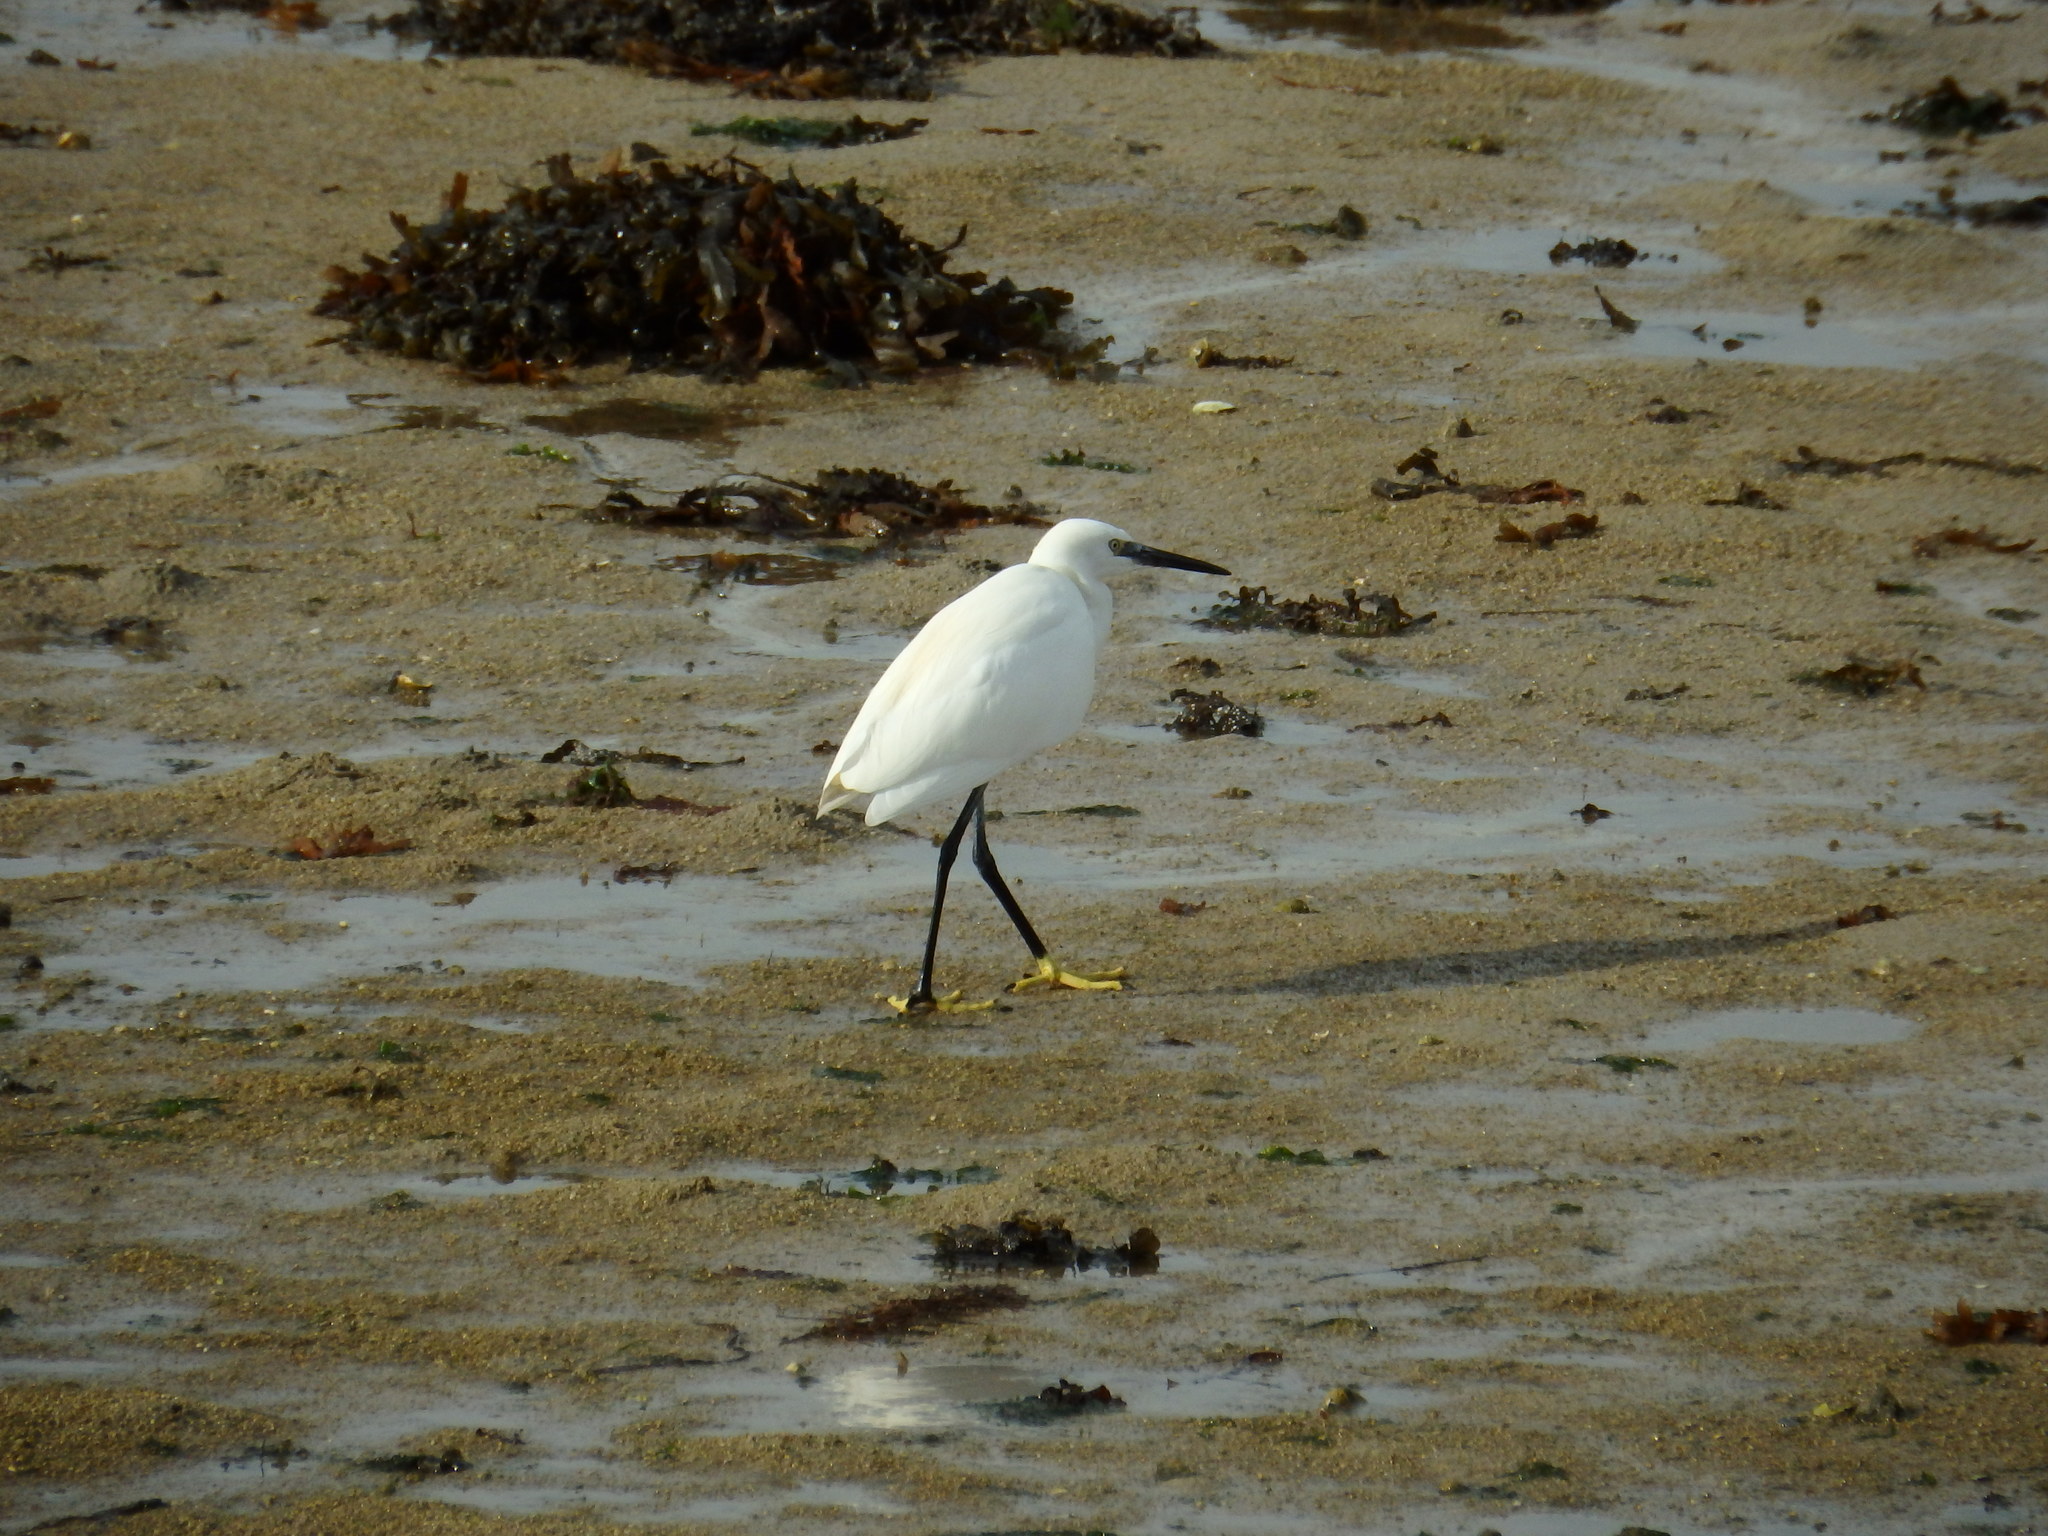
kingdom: Animalia
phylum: Chordata
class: Aves
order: Pelecaniformes
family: Ardeidae
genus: Egretta
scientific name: Egretta garzetta
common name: Little egret
